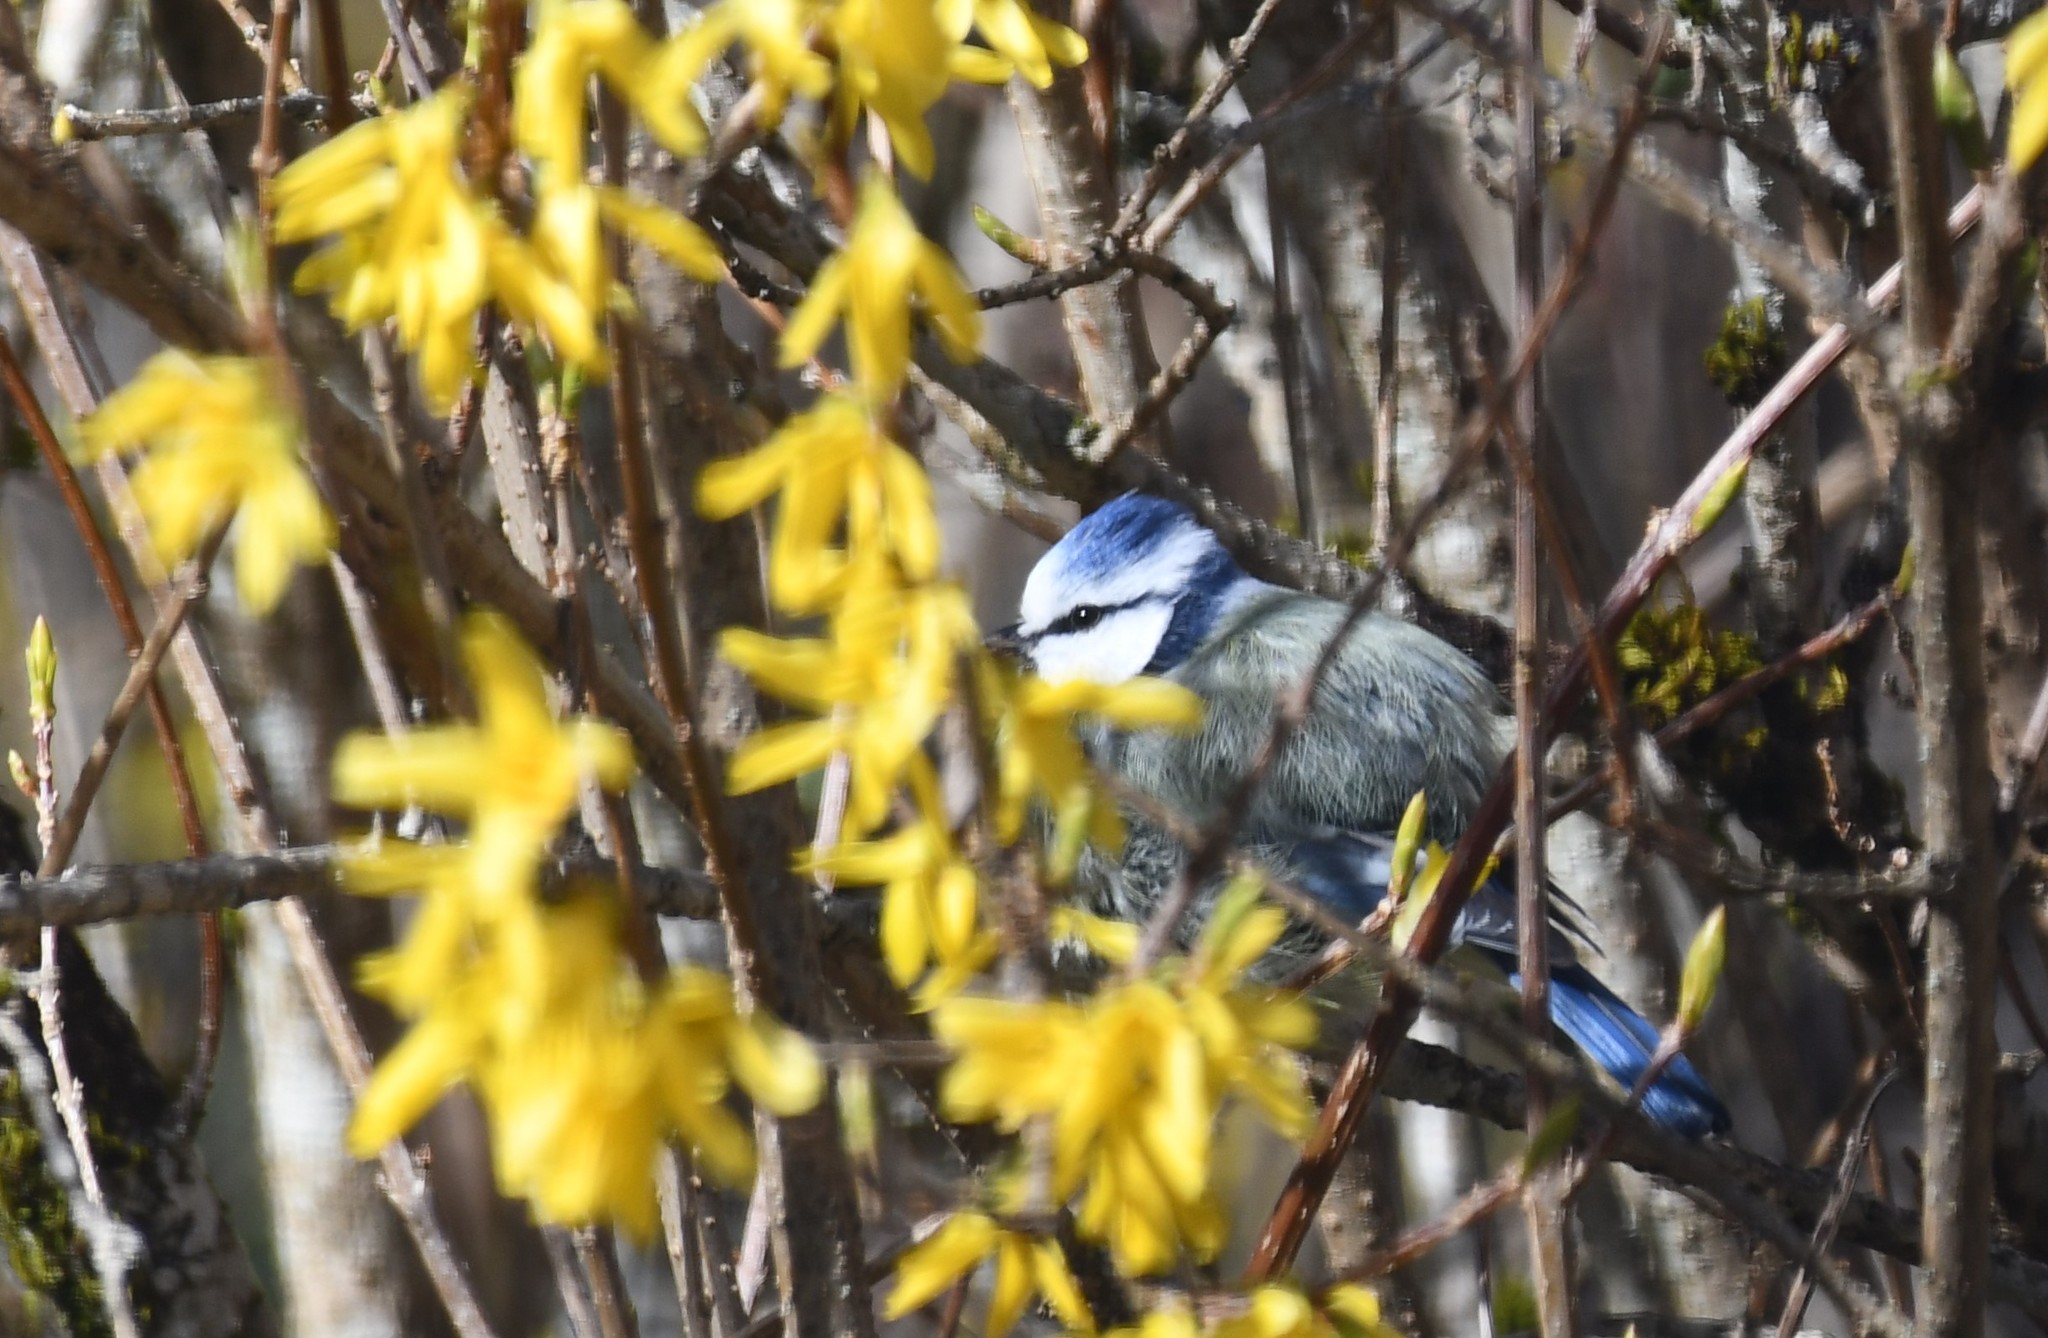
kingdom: Animalia
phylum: Chordata
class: Aves
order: Passeriformes
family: Paridae
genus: Cyanistes
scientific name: Cyanistes caeruleus
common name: Eurasian blue tit
